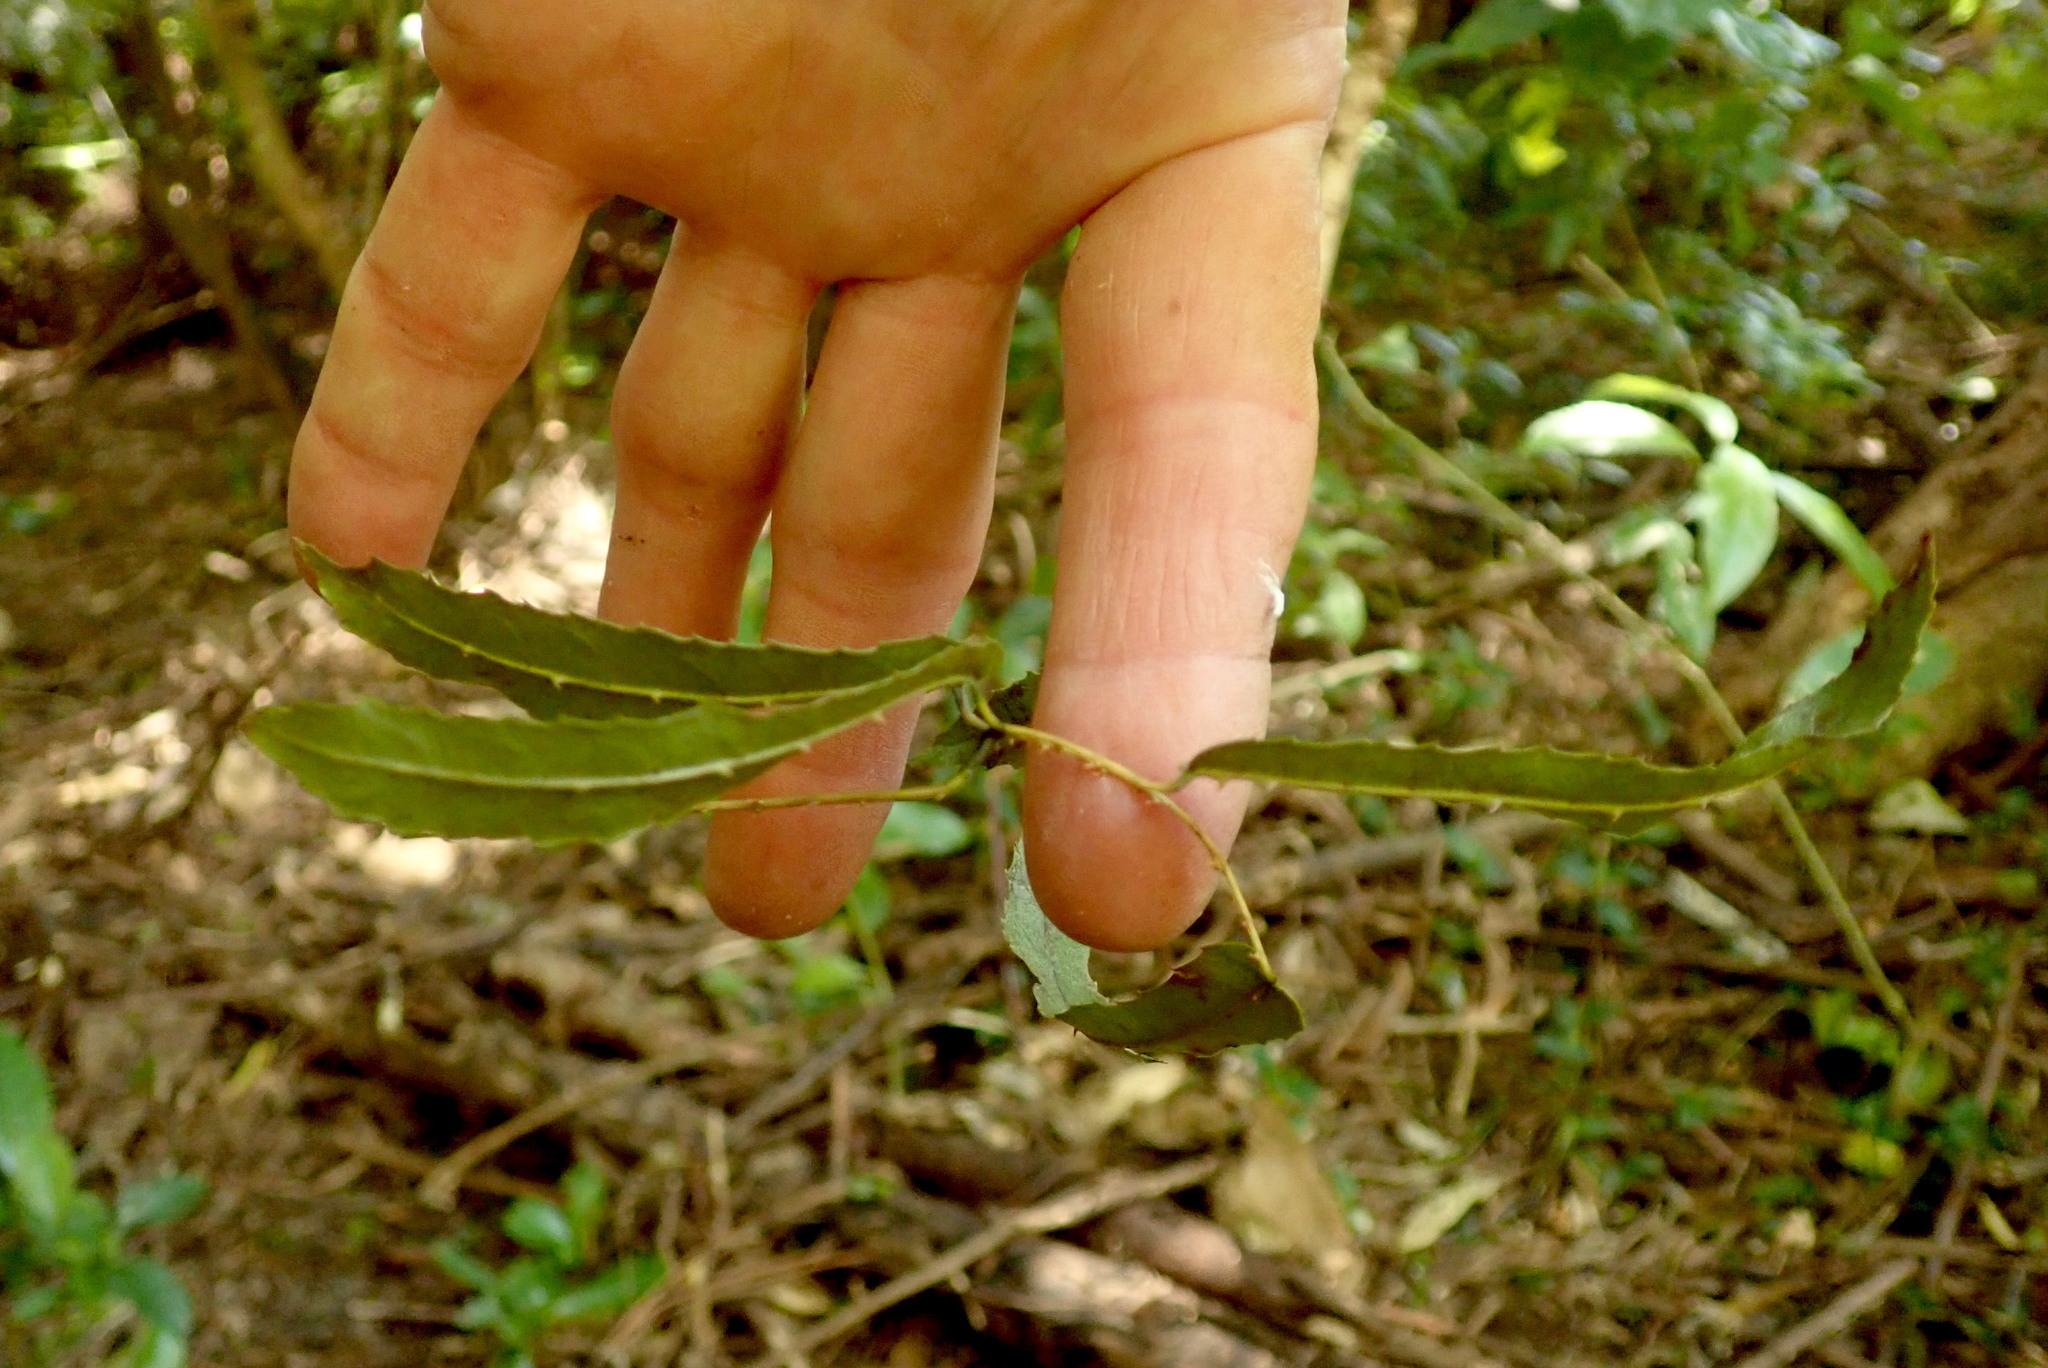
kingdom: Plantae
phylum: Tracheophyta
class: Magnoliopsida
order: Rosales
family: Rosaceae
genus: Rubus
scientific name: Rubus cissoides
